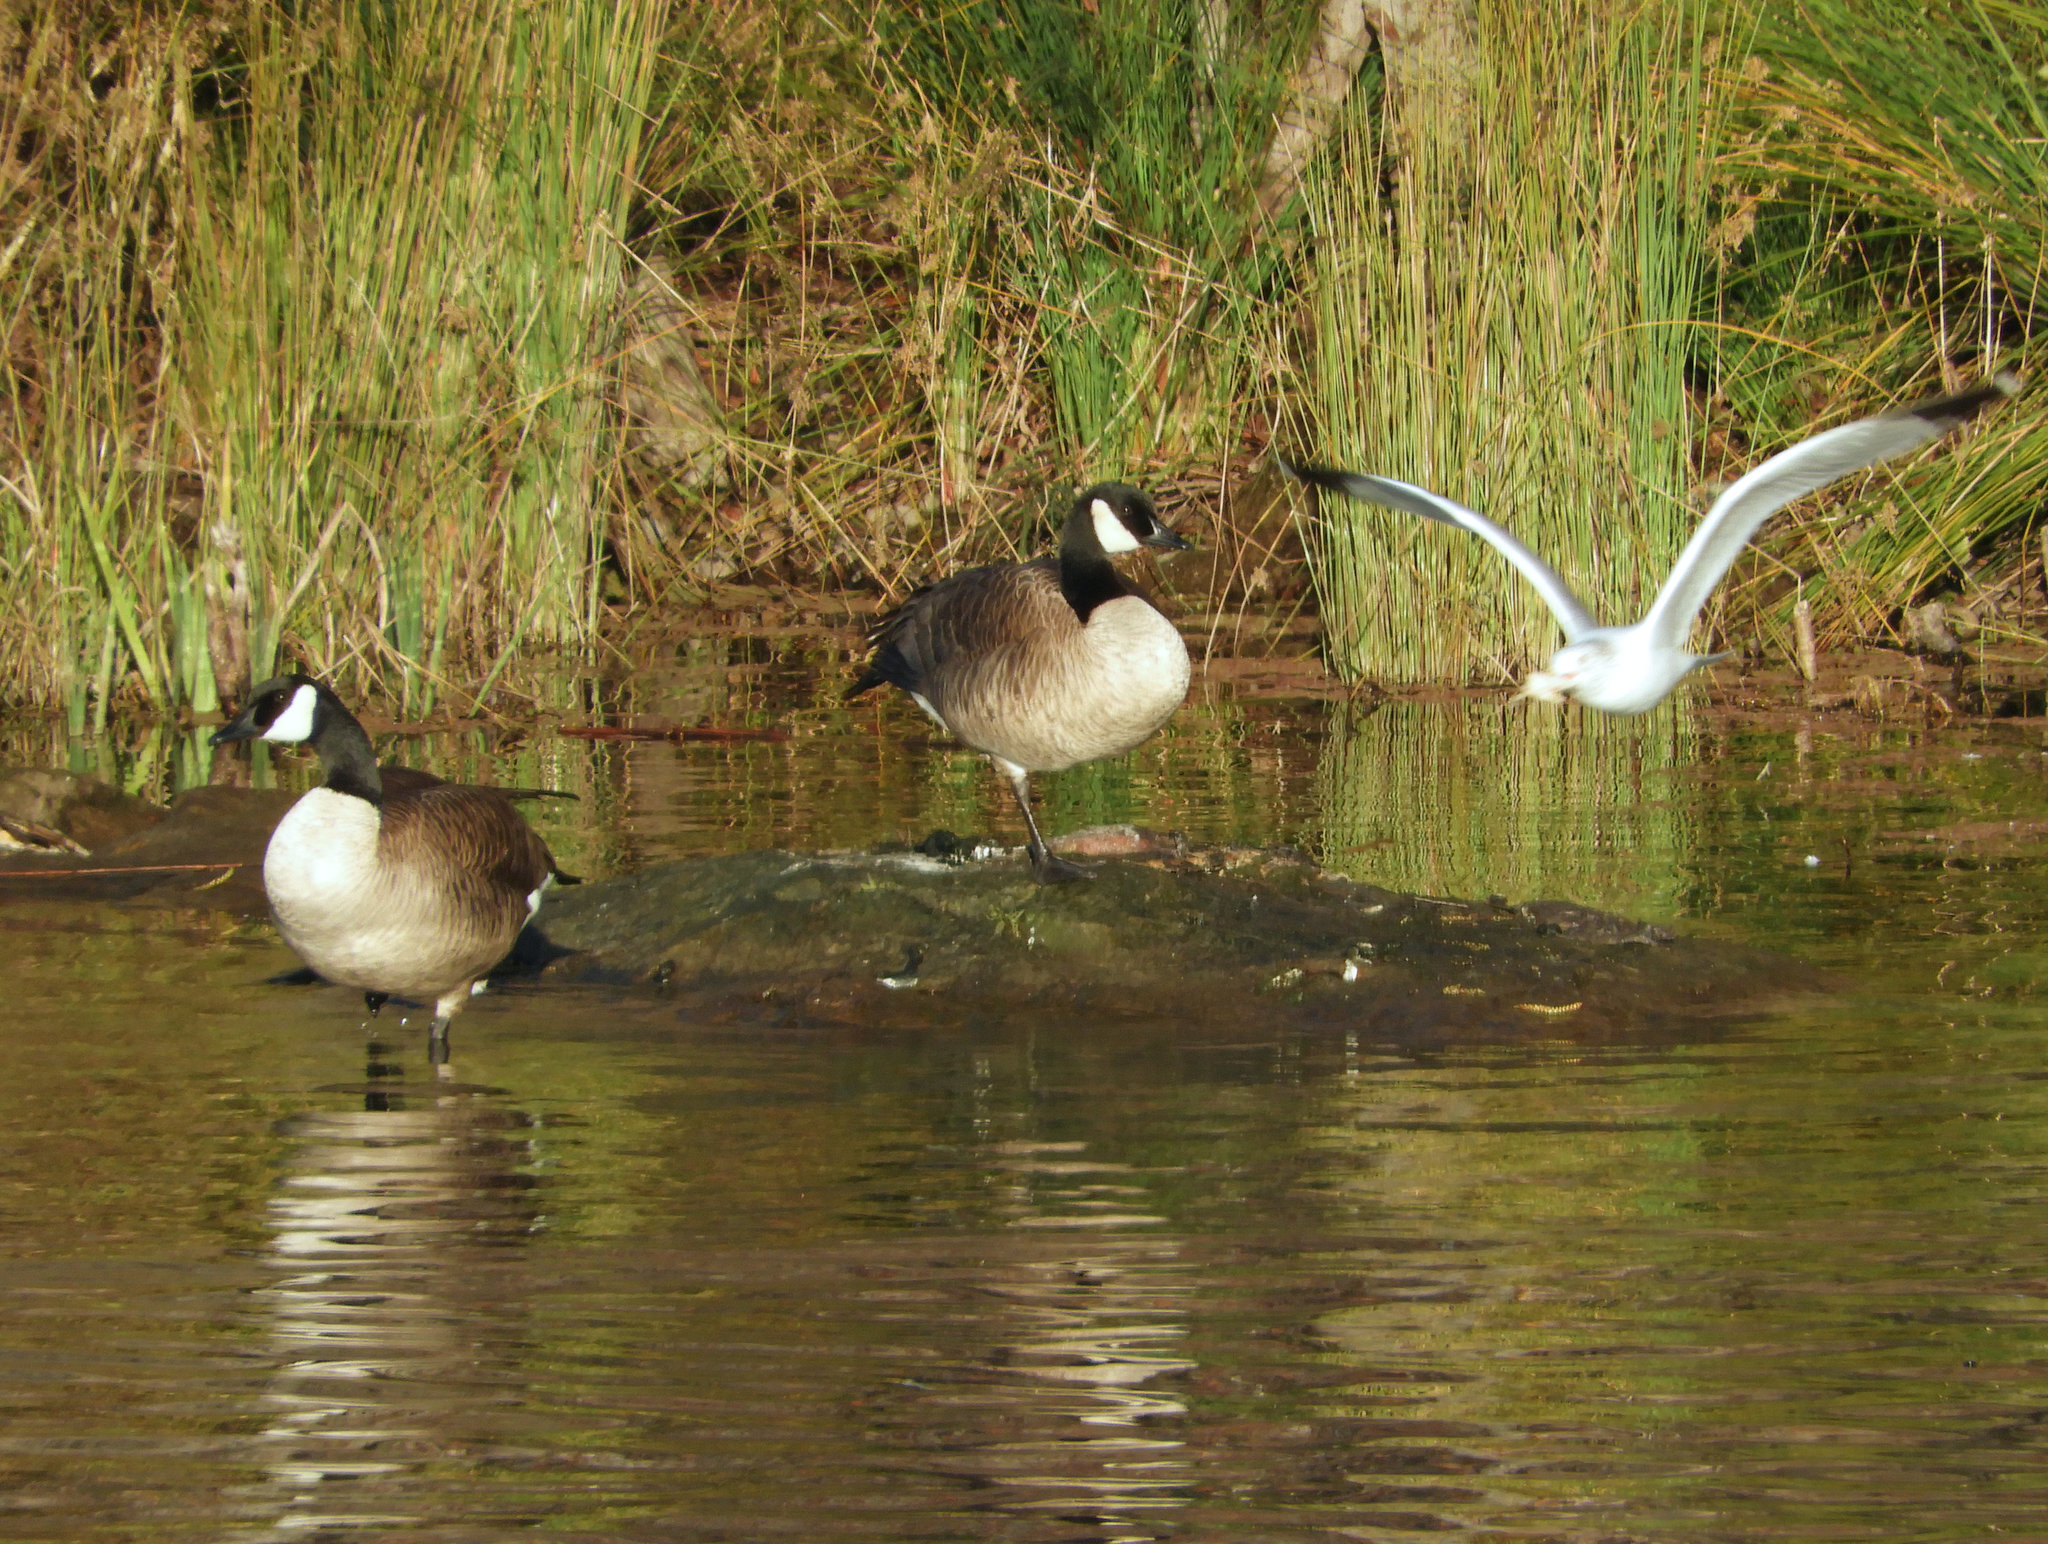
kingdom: Animalia
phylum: Chordata
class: Aves
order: Anseriformes
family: Anatidae
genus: Branta
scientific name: Branta canadensis
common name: Canada goose
